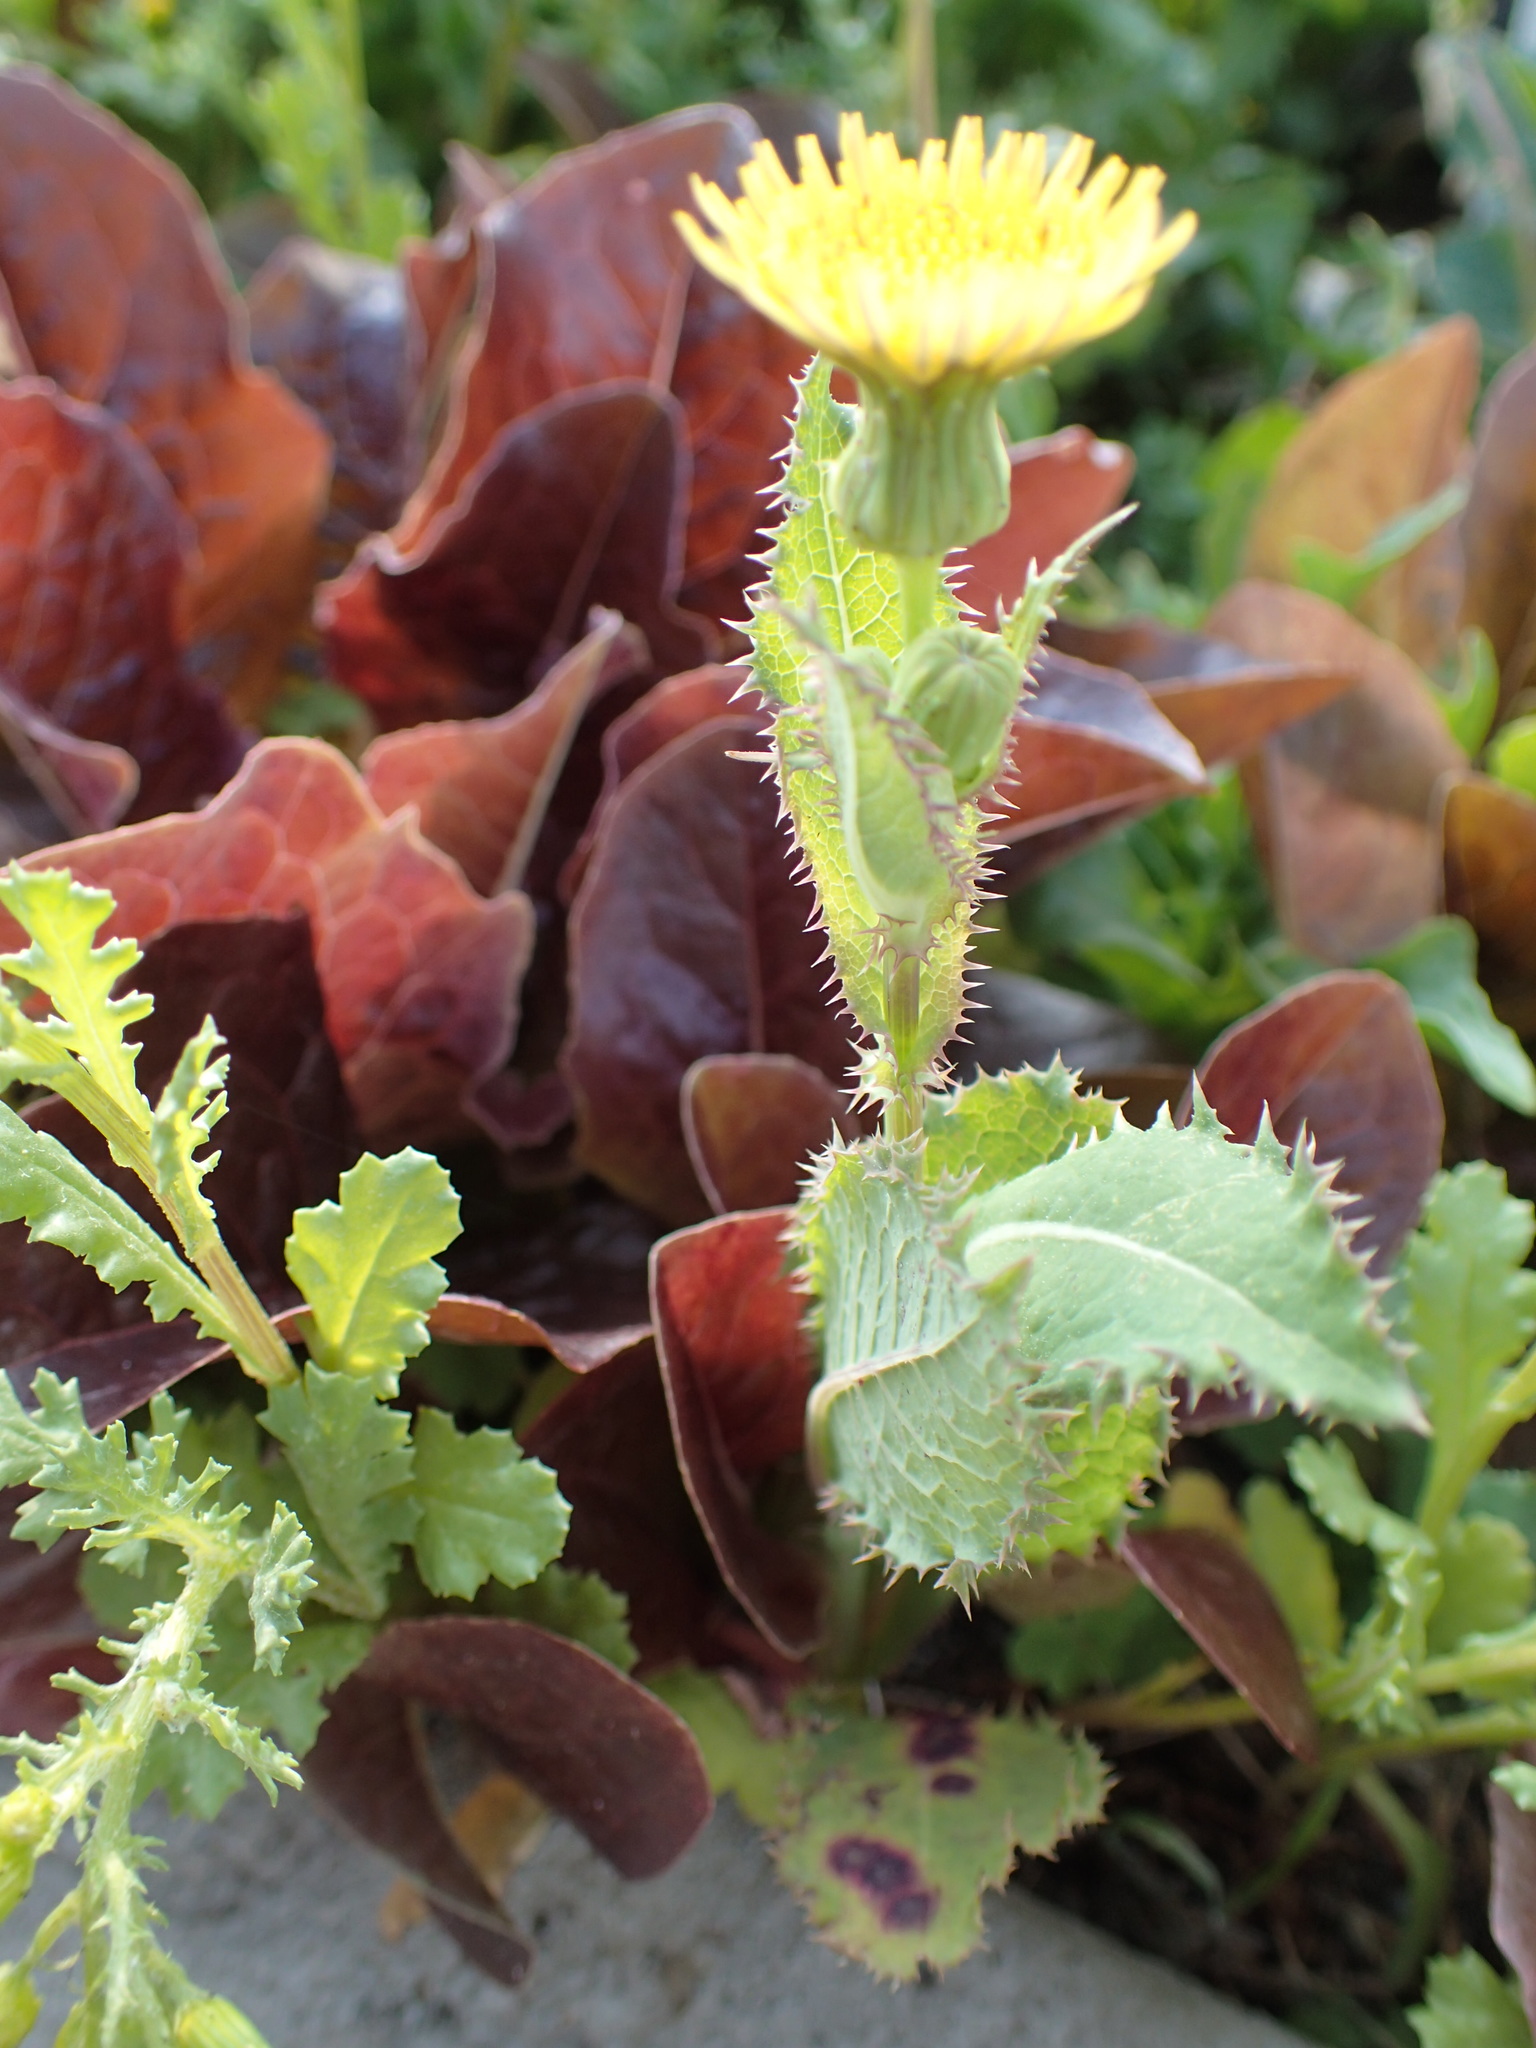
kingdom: Plantae
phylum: Tracheophyta
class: Magnoliopsida
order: Asterales
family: Asteraceae
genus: Sonchus
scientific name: Sonchus asper
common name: Prickly sow-thistle
